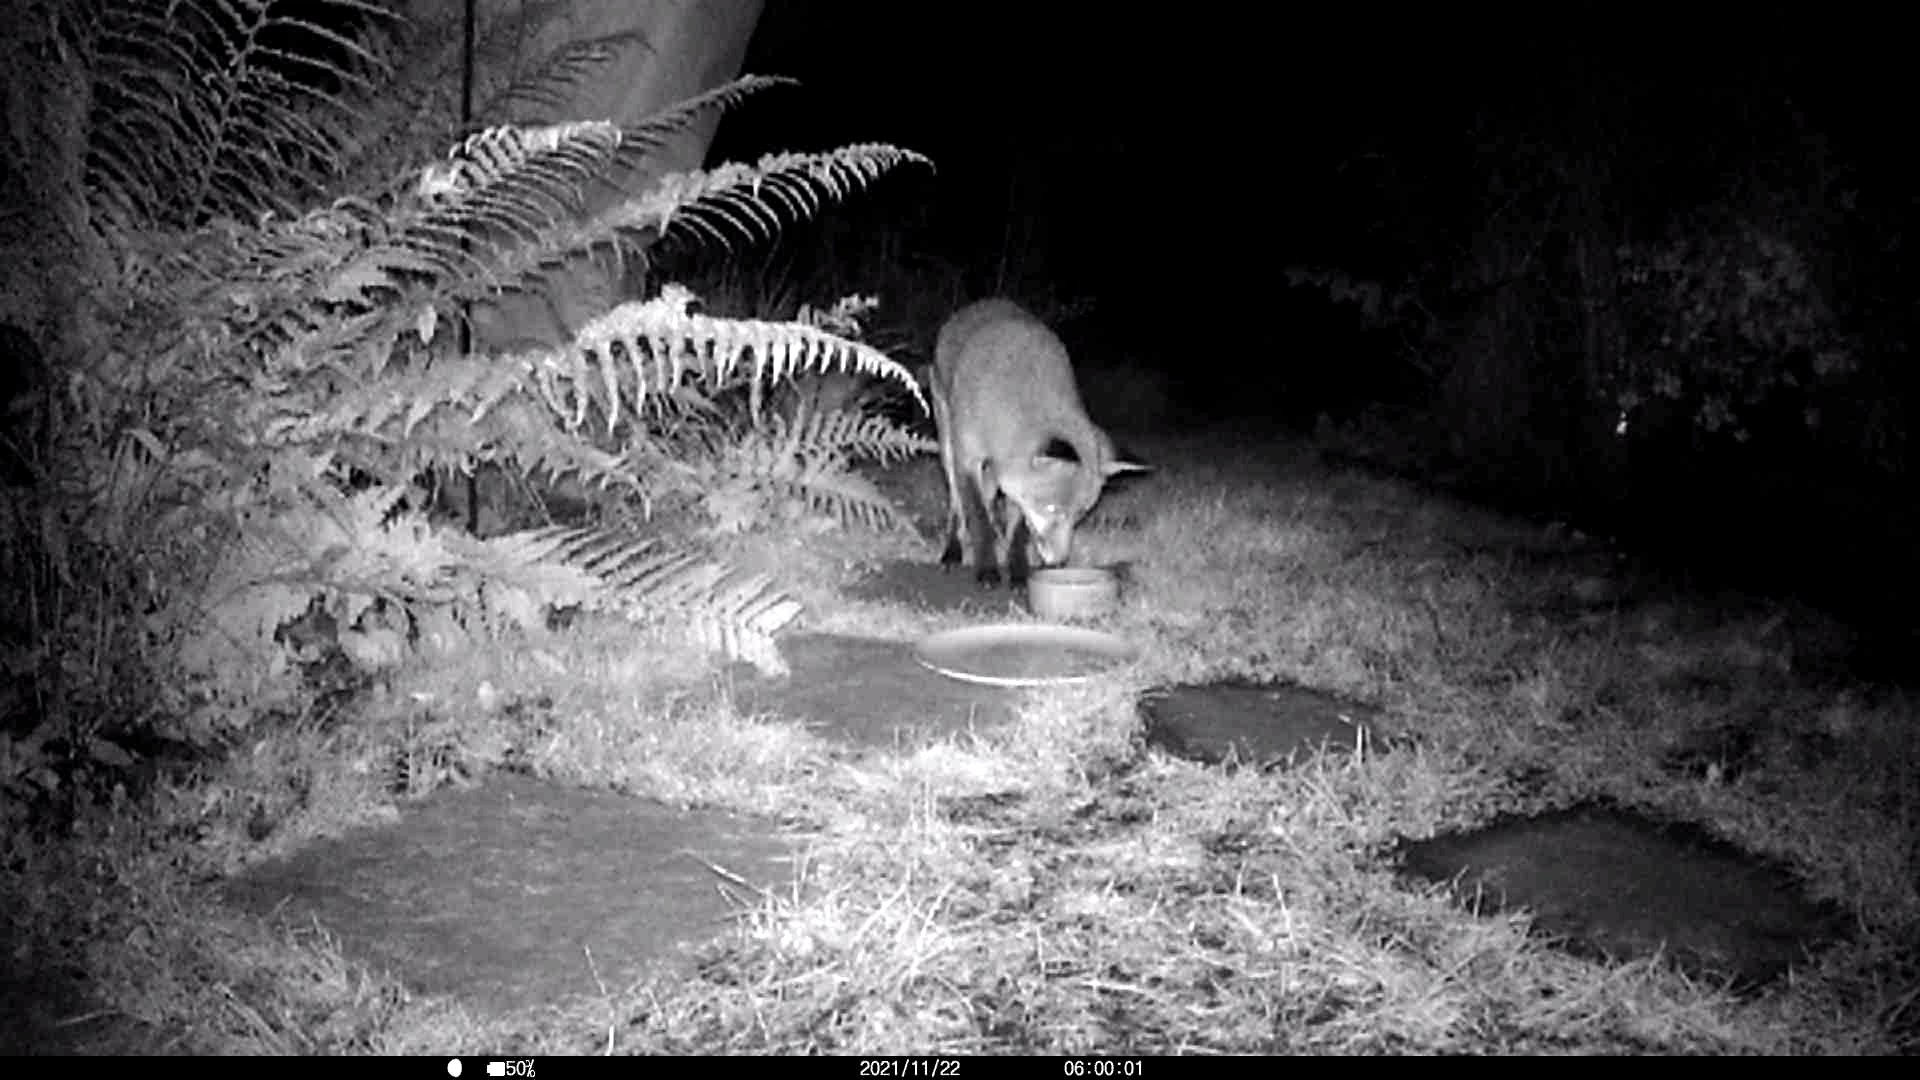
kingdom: Animalia
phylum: Chordata
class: Mammalia
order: Carnivora
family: Canidae
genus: Vulpes
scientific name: Vulpes vulpes
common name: Red fox
